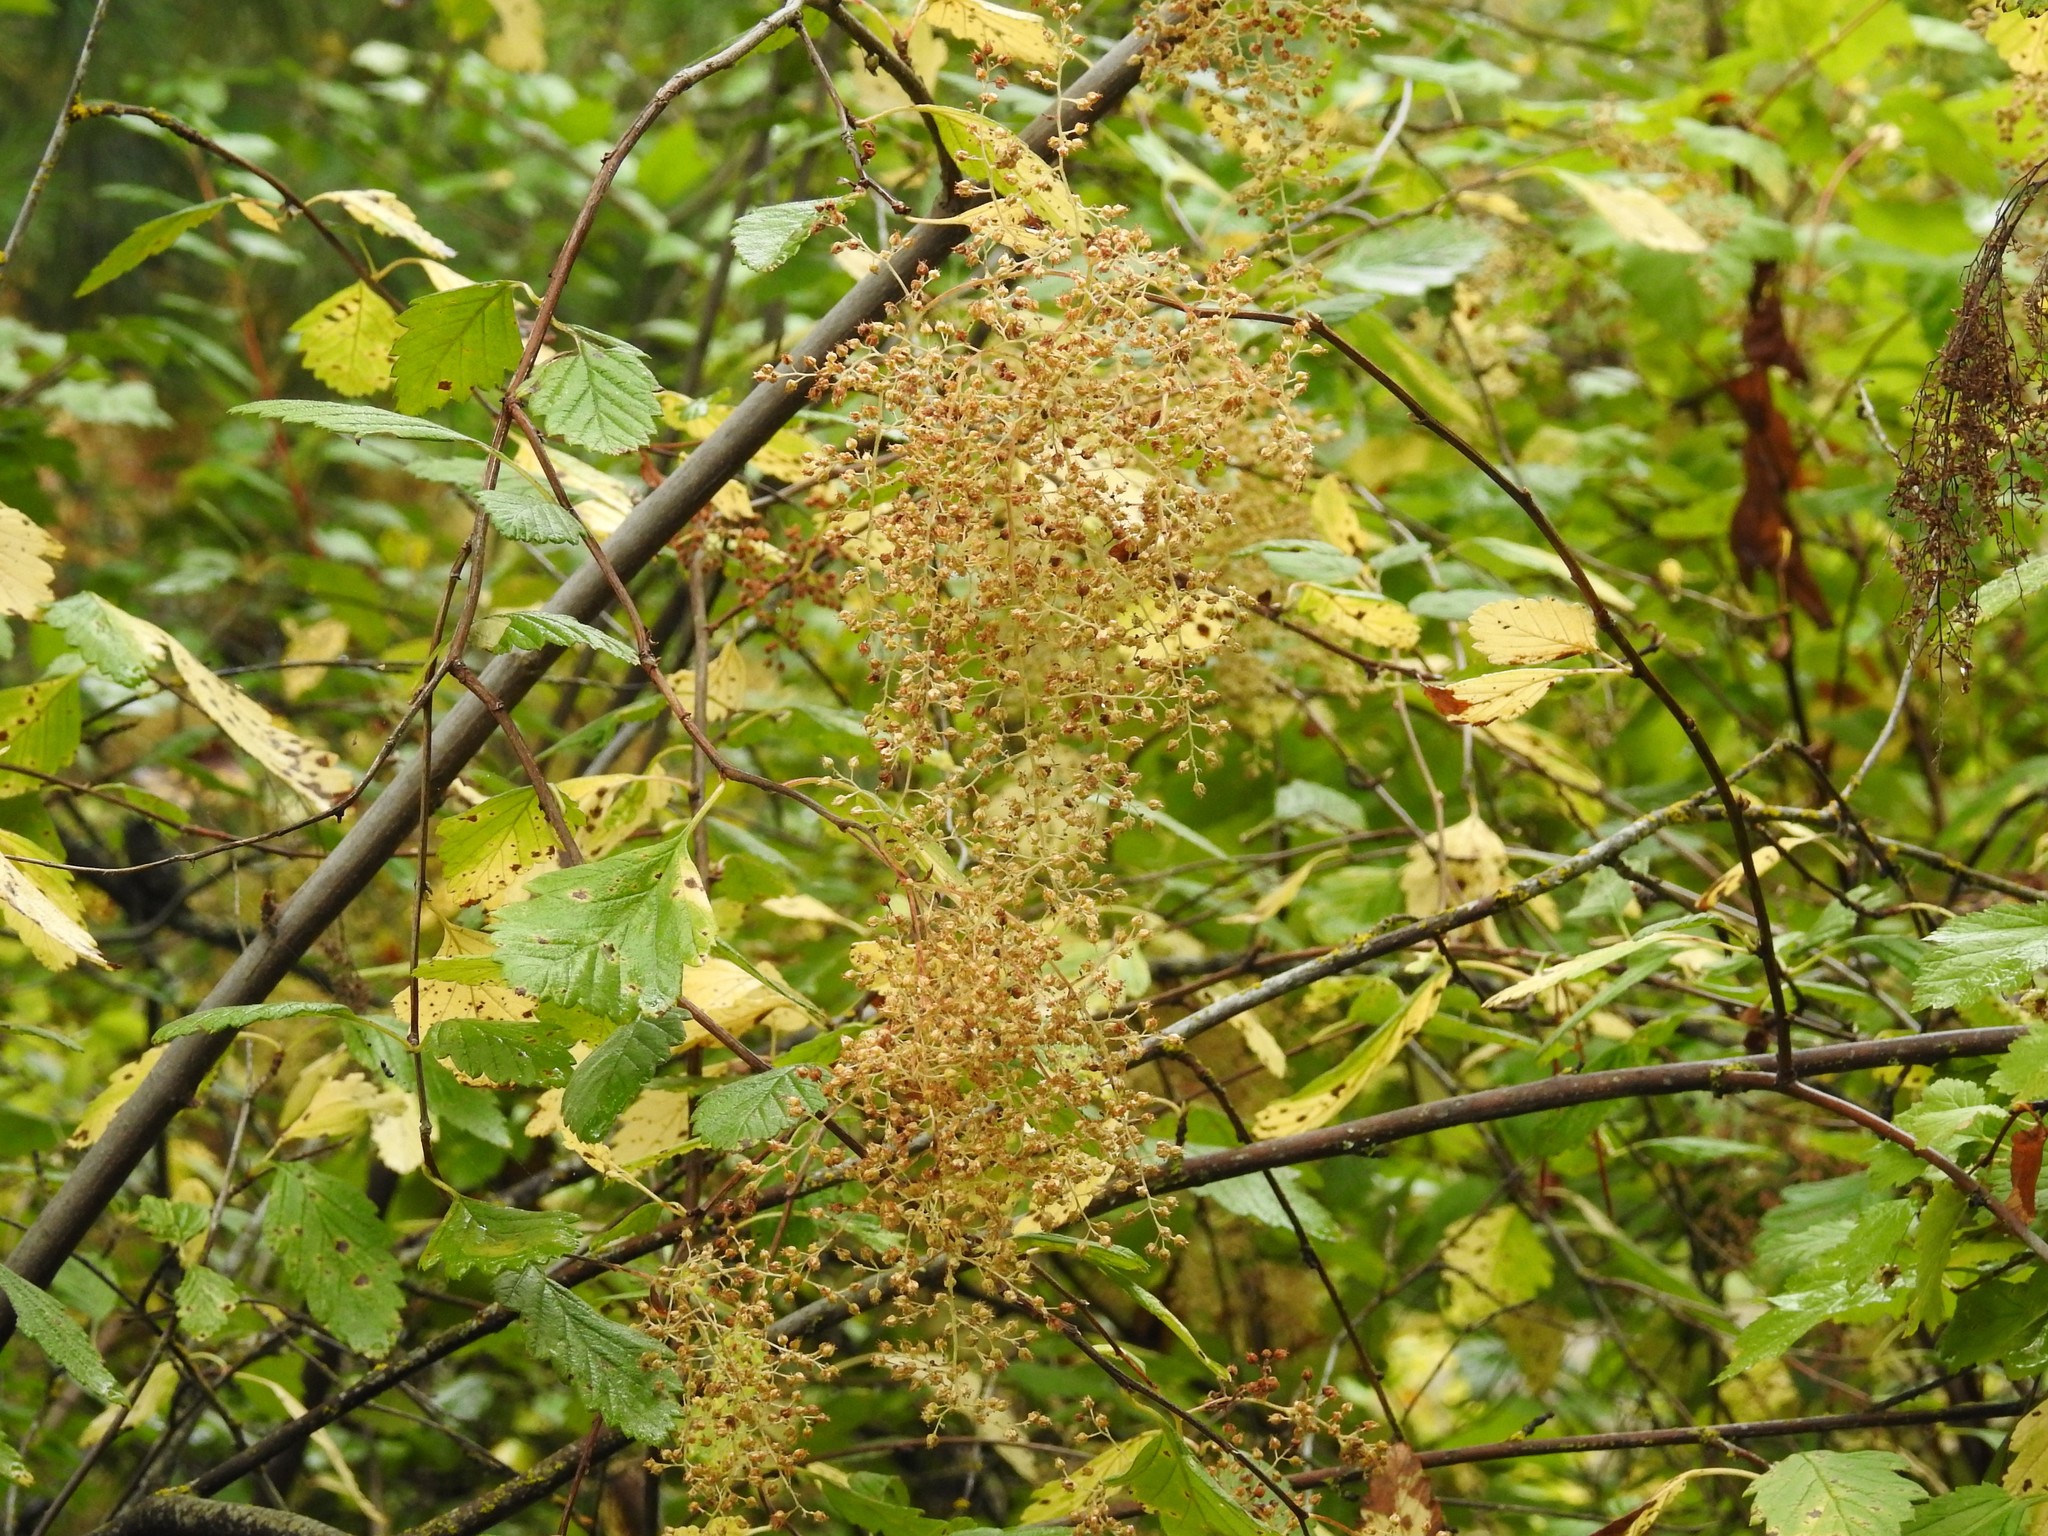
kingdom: Plantae
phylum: Tracheophyta
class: Magnoliopsida
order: Rosales
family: Rosaceae
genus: Holodiscus
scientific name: Holodiscus discolor
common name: Oceanspray
